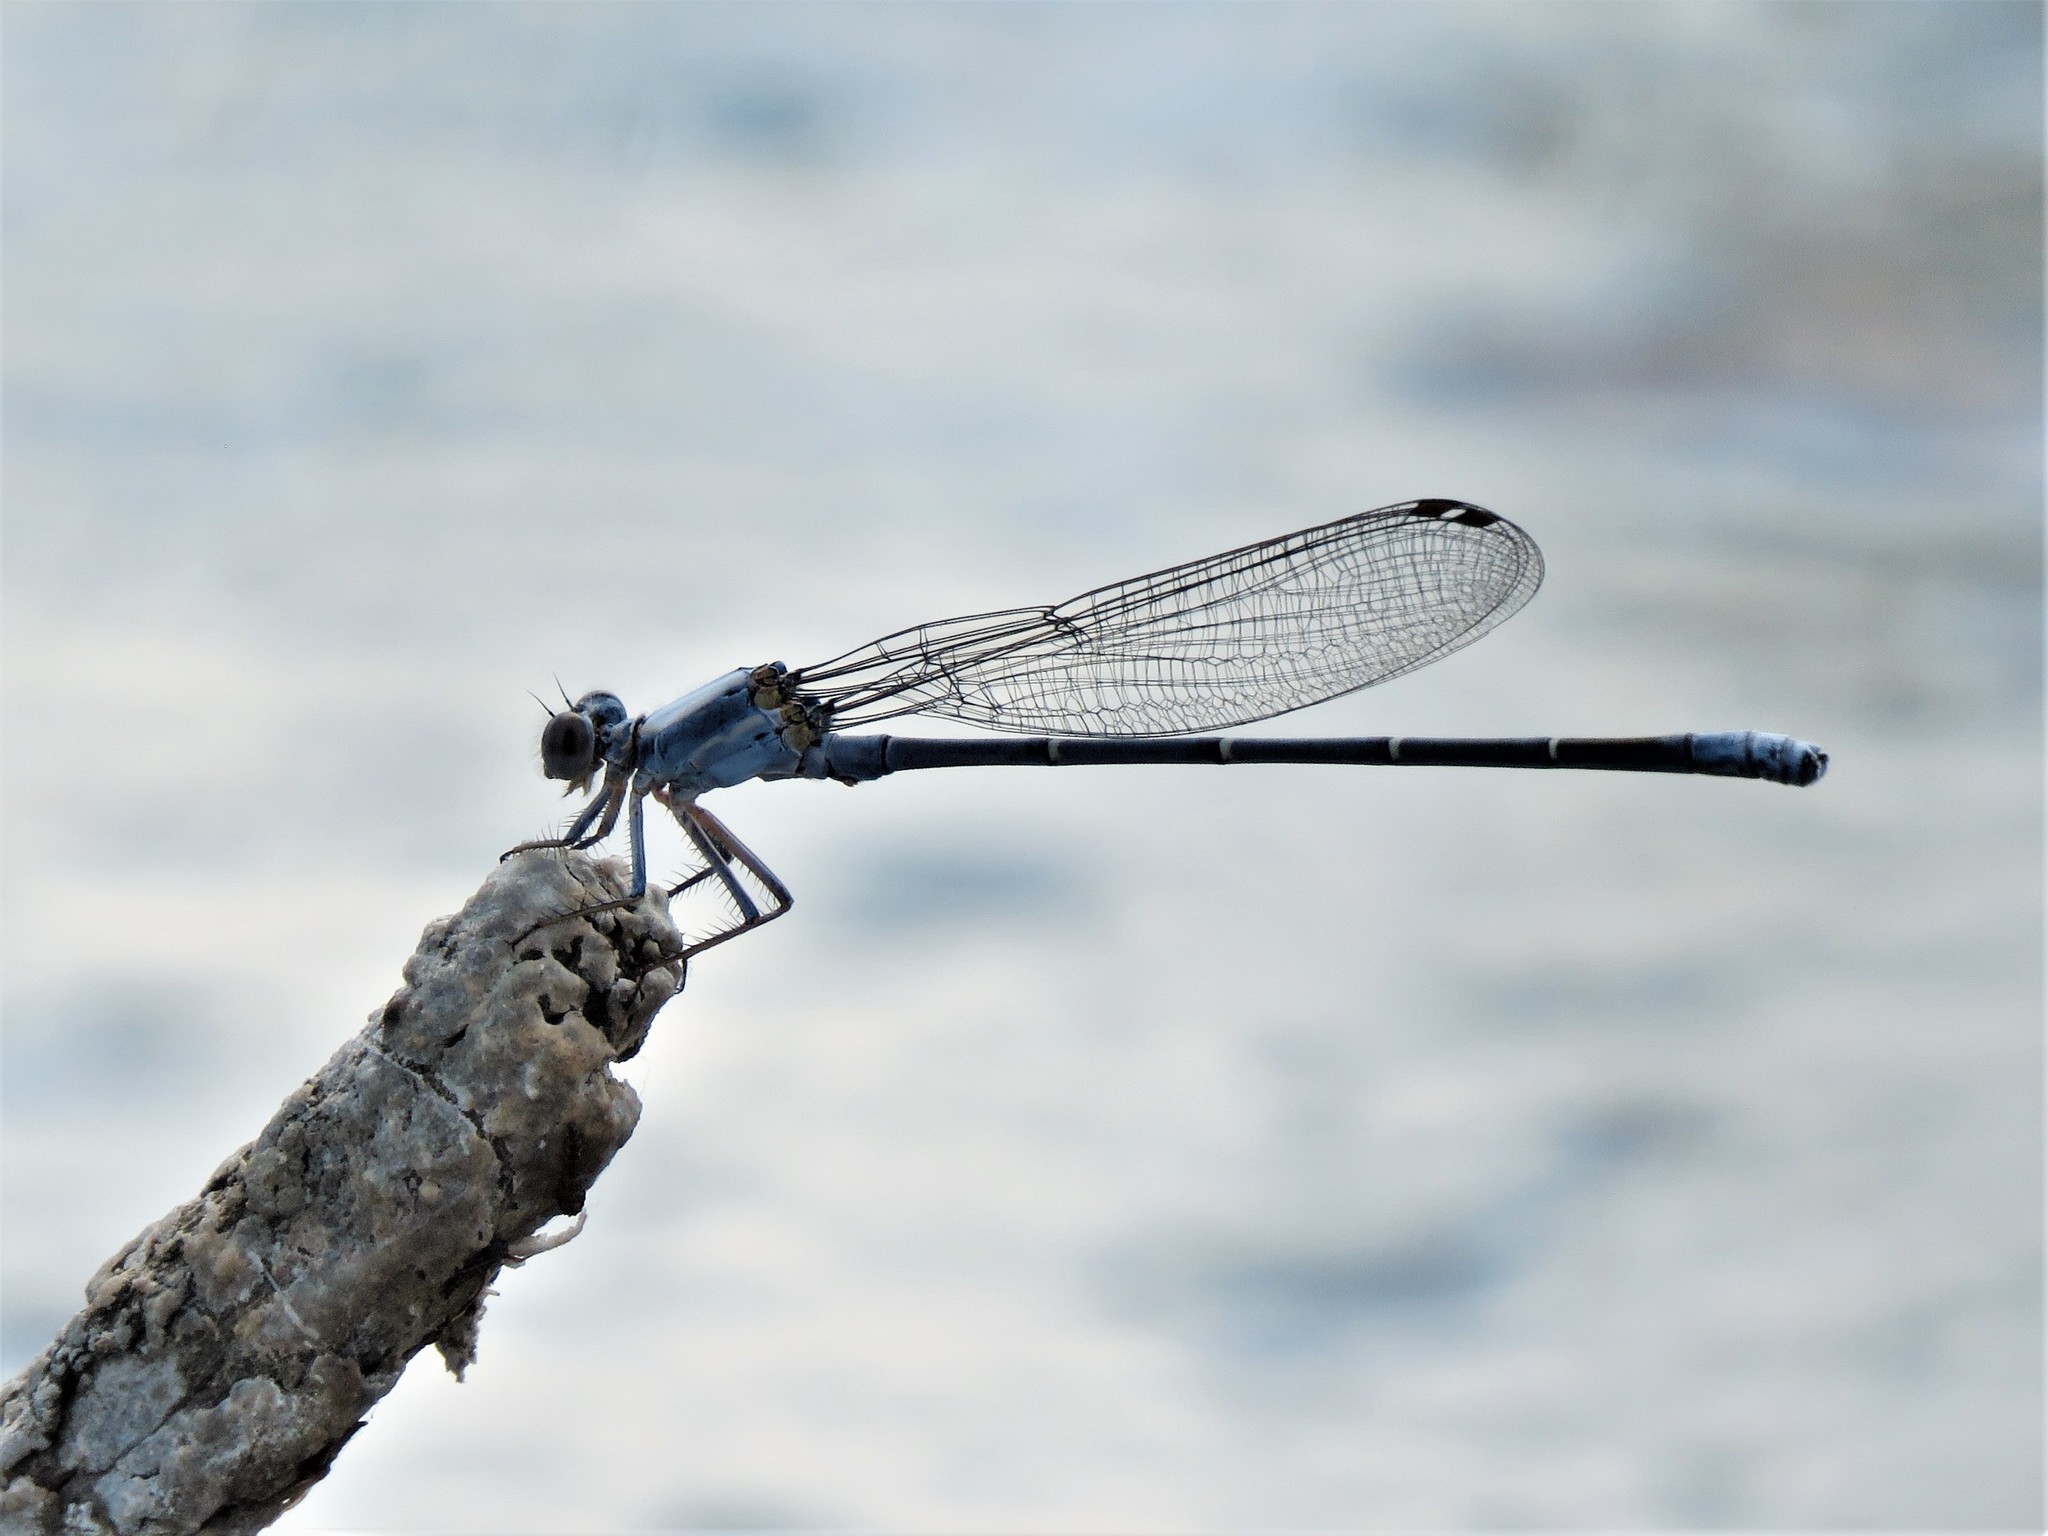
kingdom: Animalia
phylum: Arthropoda
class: Insecta
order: Odonata
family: Coenagrionidae
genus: Argia
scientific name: Argia moesta
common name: Powdered dancer
